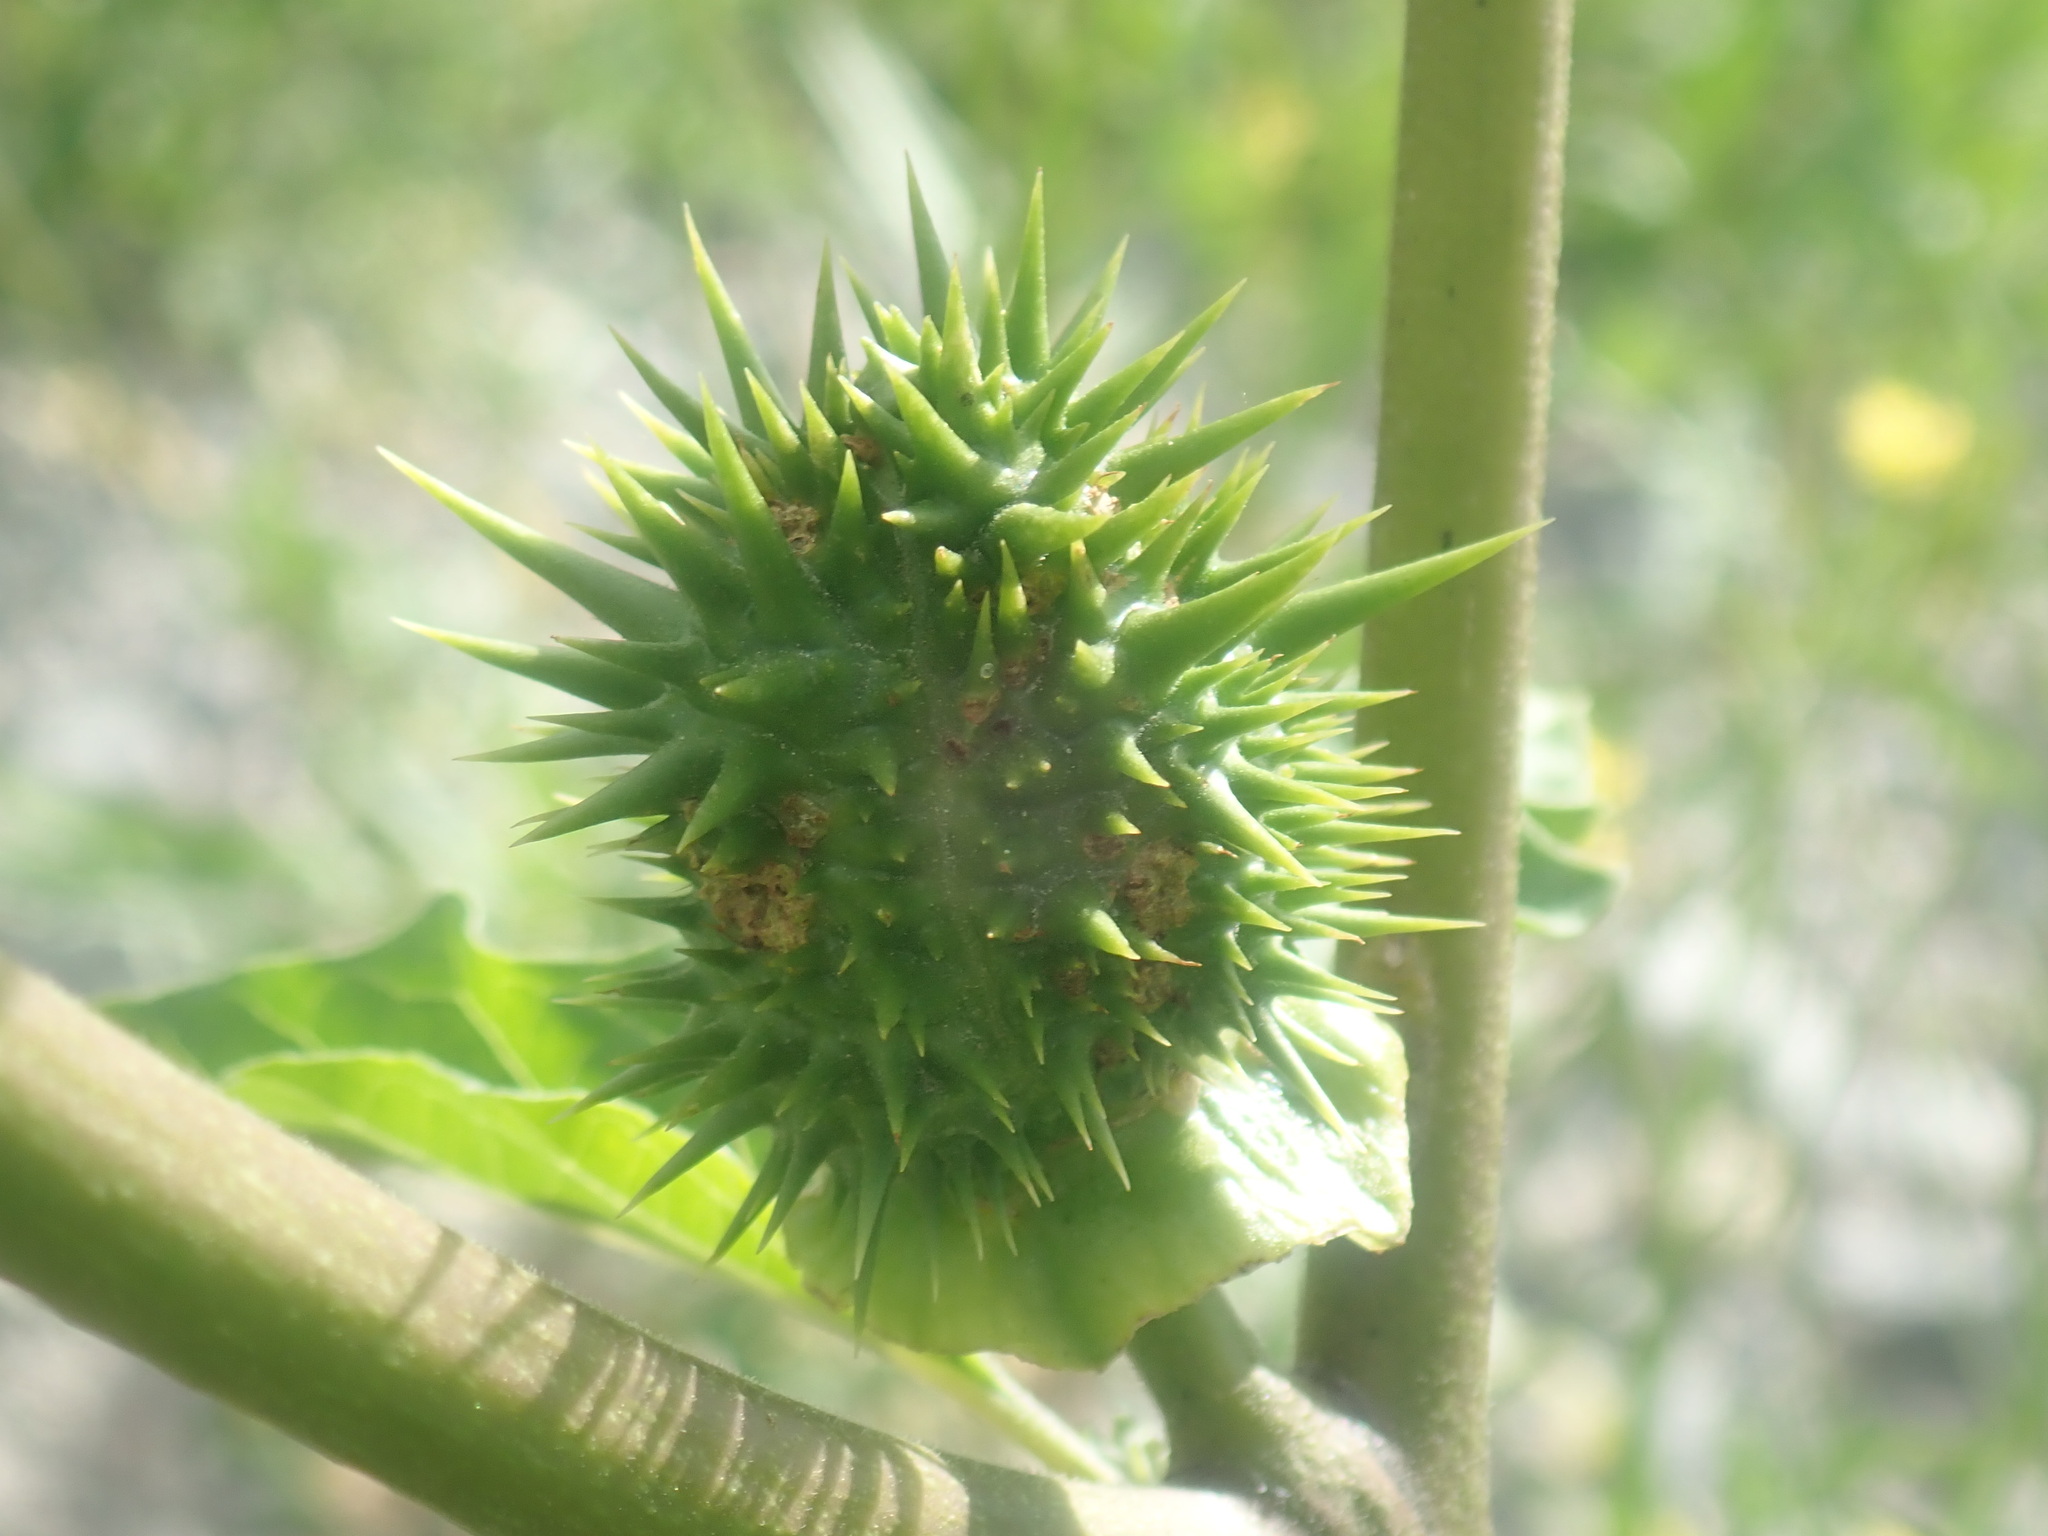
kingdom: Plantae
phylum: Tracheophyta
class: Magnoliopsida
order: Solanales
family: Solanaceae
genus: Datura
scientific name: Datura stramonium
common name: Thorn-apple
